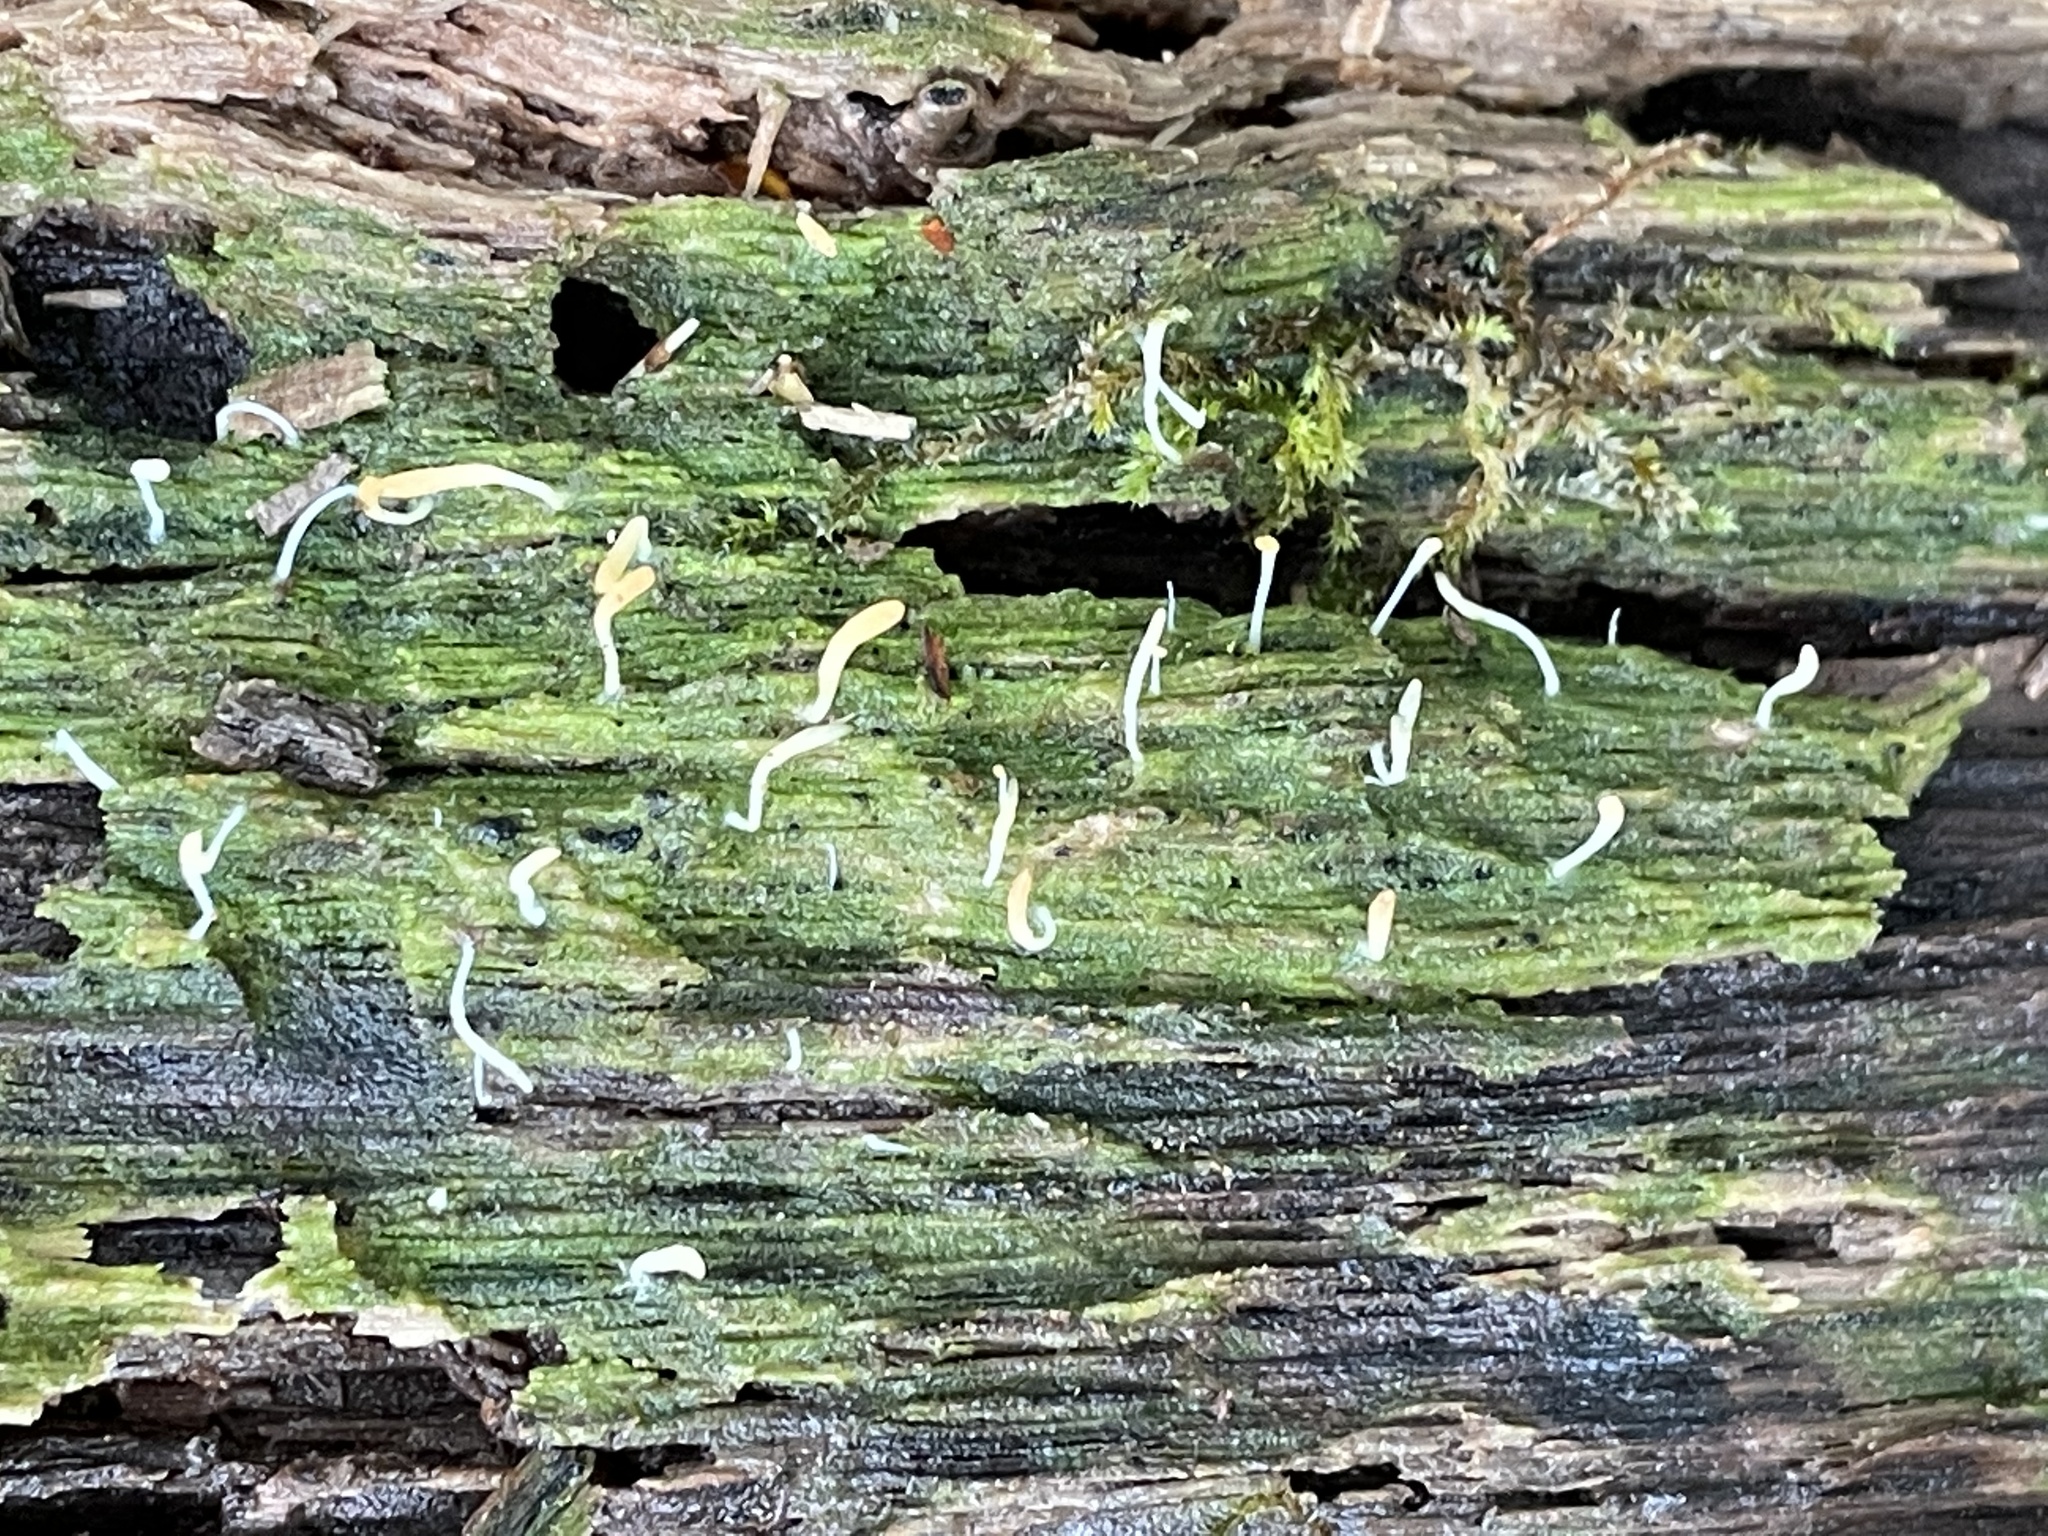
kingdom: Fungi
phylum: Basidiomycota
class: Agaricomycetes
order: Cantharellales
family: Hydnaceae
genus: Multiclavula
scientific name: Multiclavula mucida
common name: White green-algae coral
